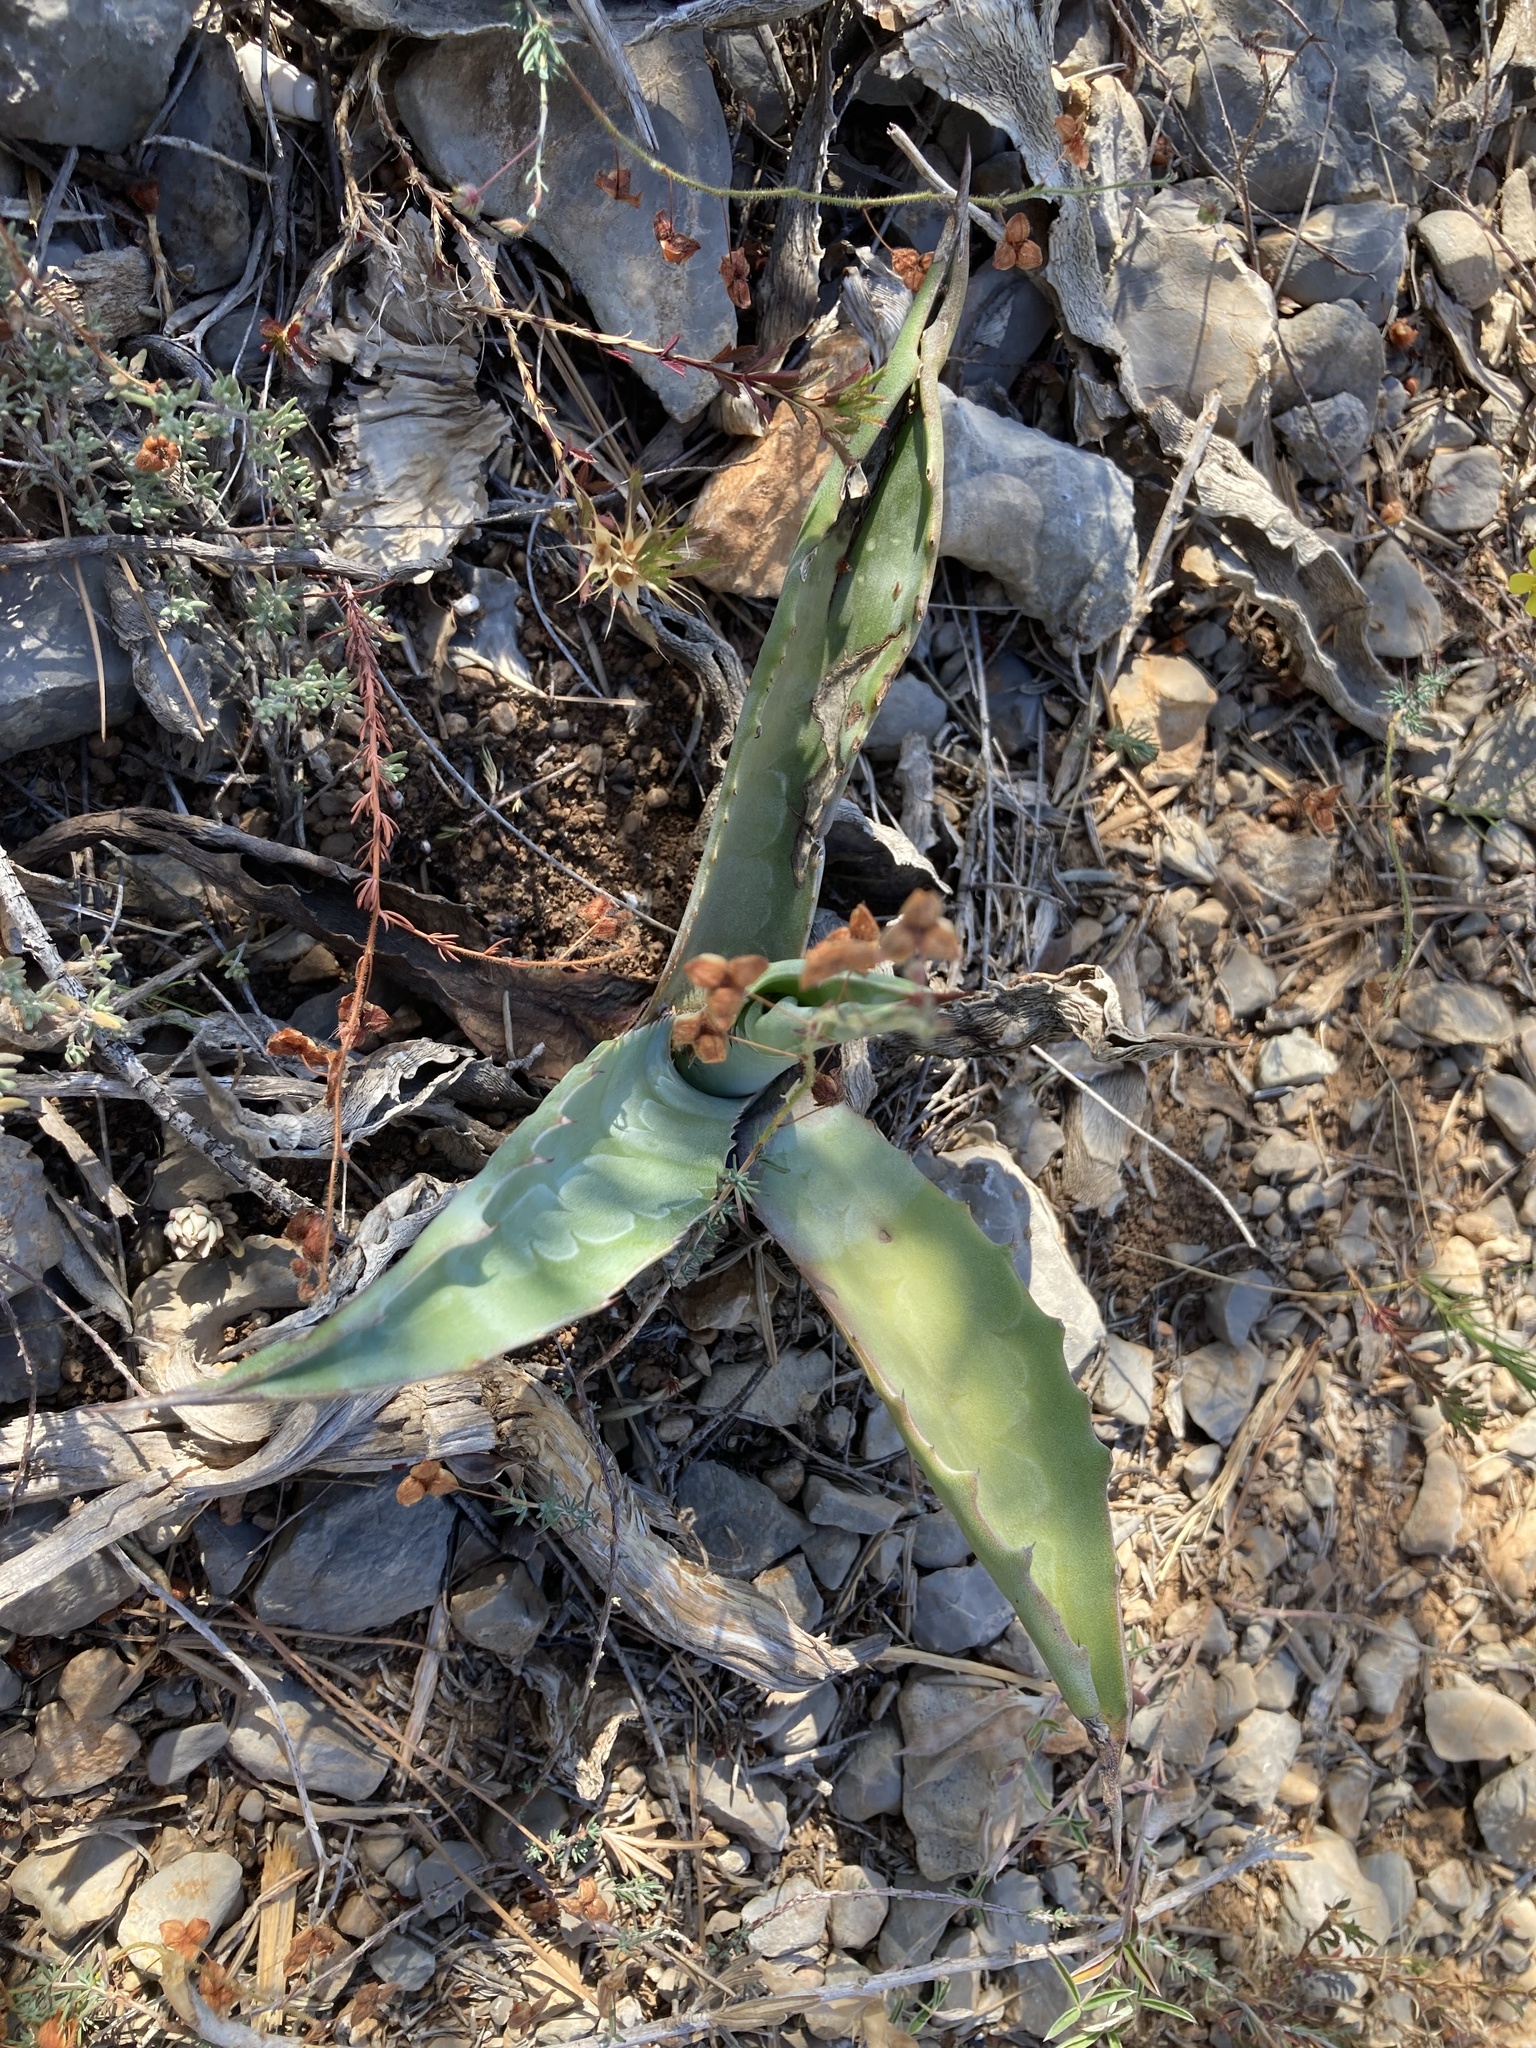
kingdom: Plantae
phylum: Tracheophyta
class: Liliopsida
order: Asparagales
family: Asparagaceae
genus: Agave
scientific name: Agave americana
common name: Centuryplant
